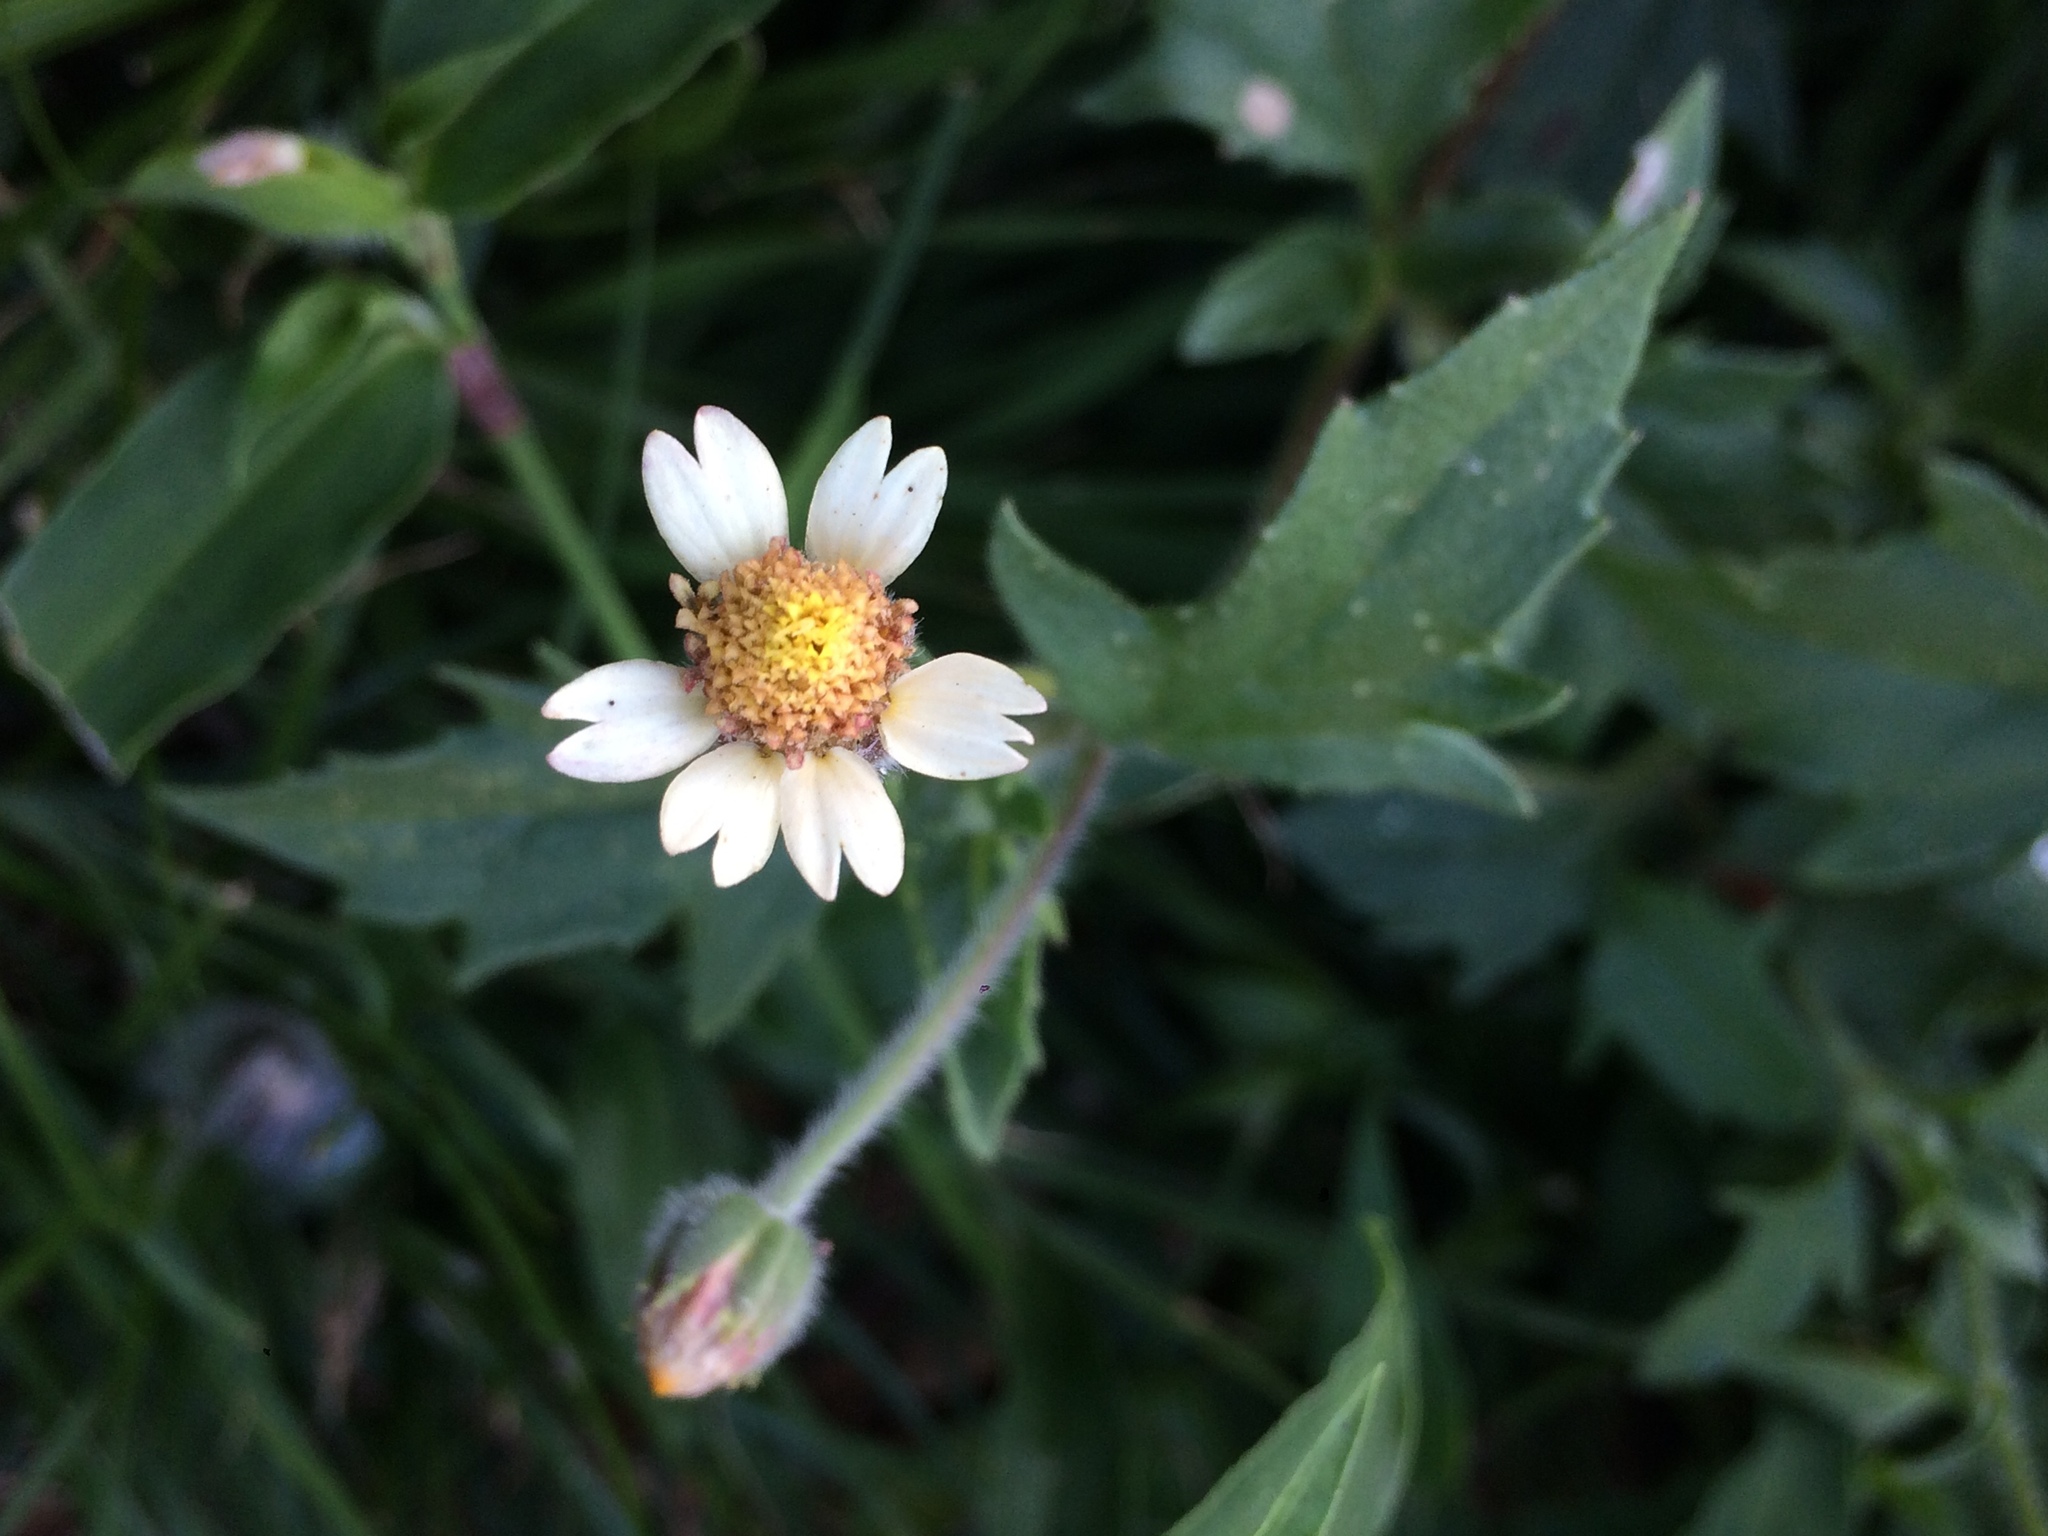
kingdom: Plantae
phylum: Tracheophyta
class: Magnoliopsida
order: Asterales
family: Asteraceae
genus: Tridax
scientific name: Tridax procumbens
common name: Coatbuttons
